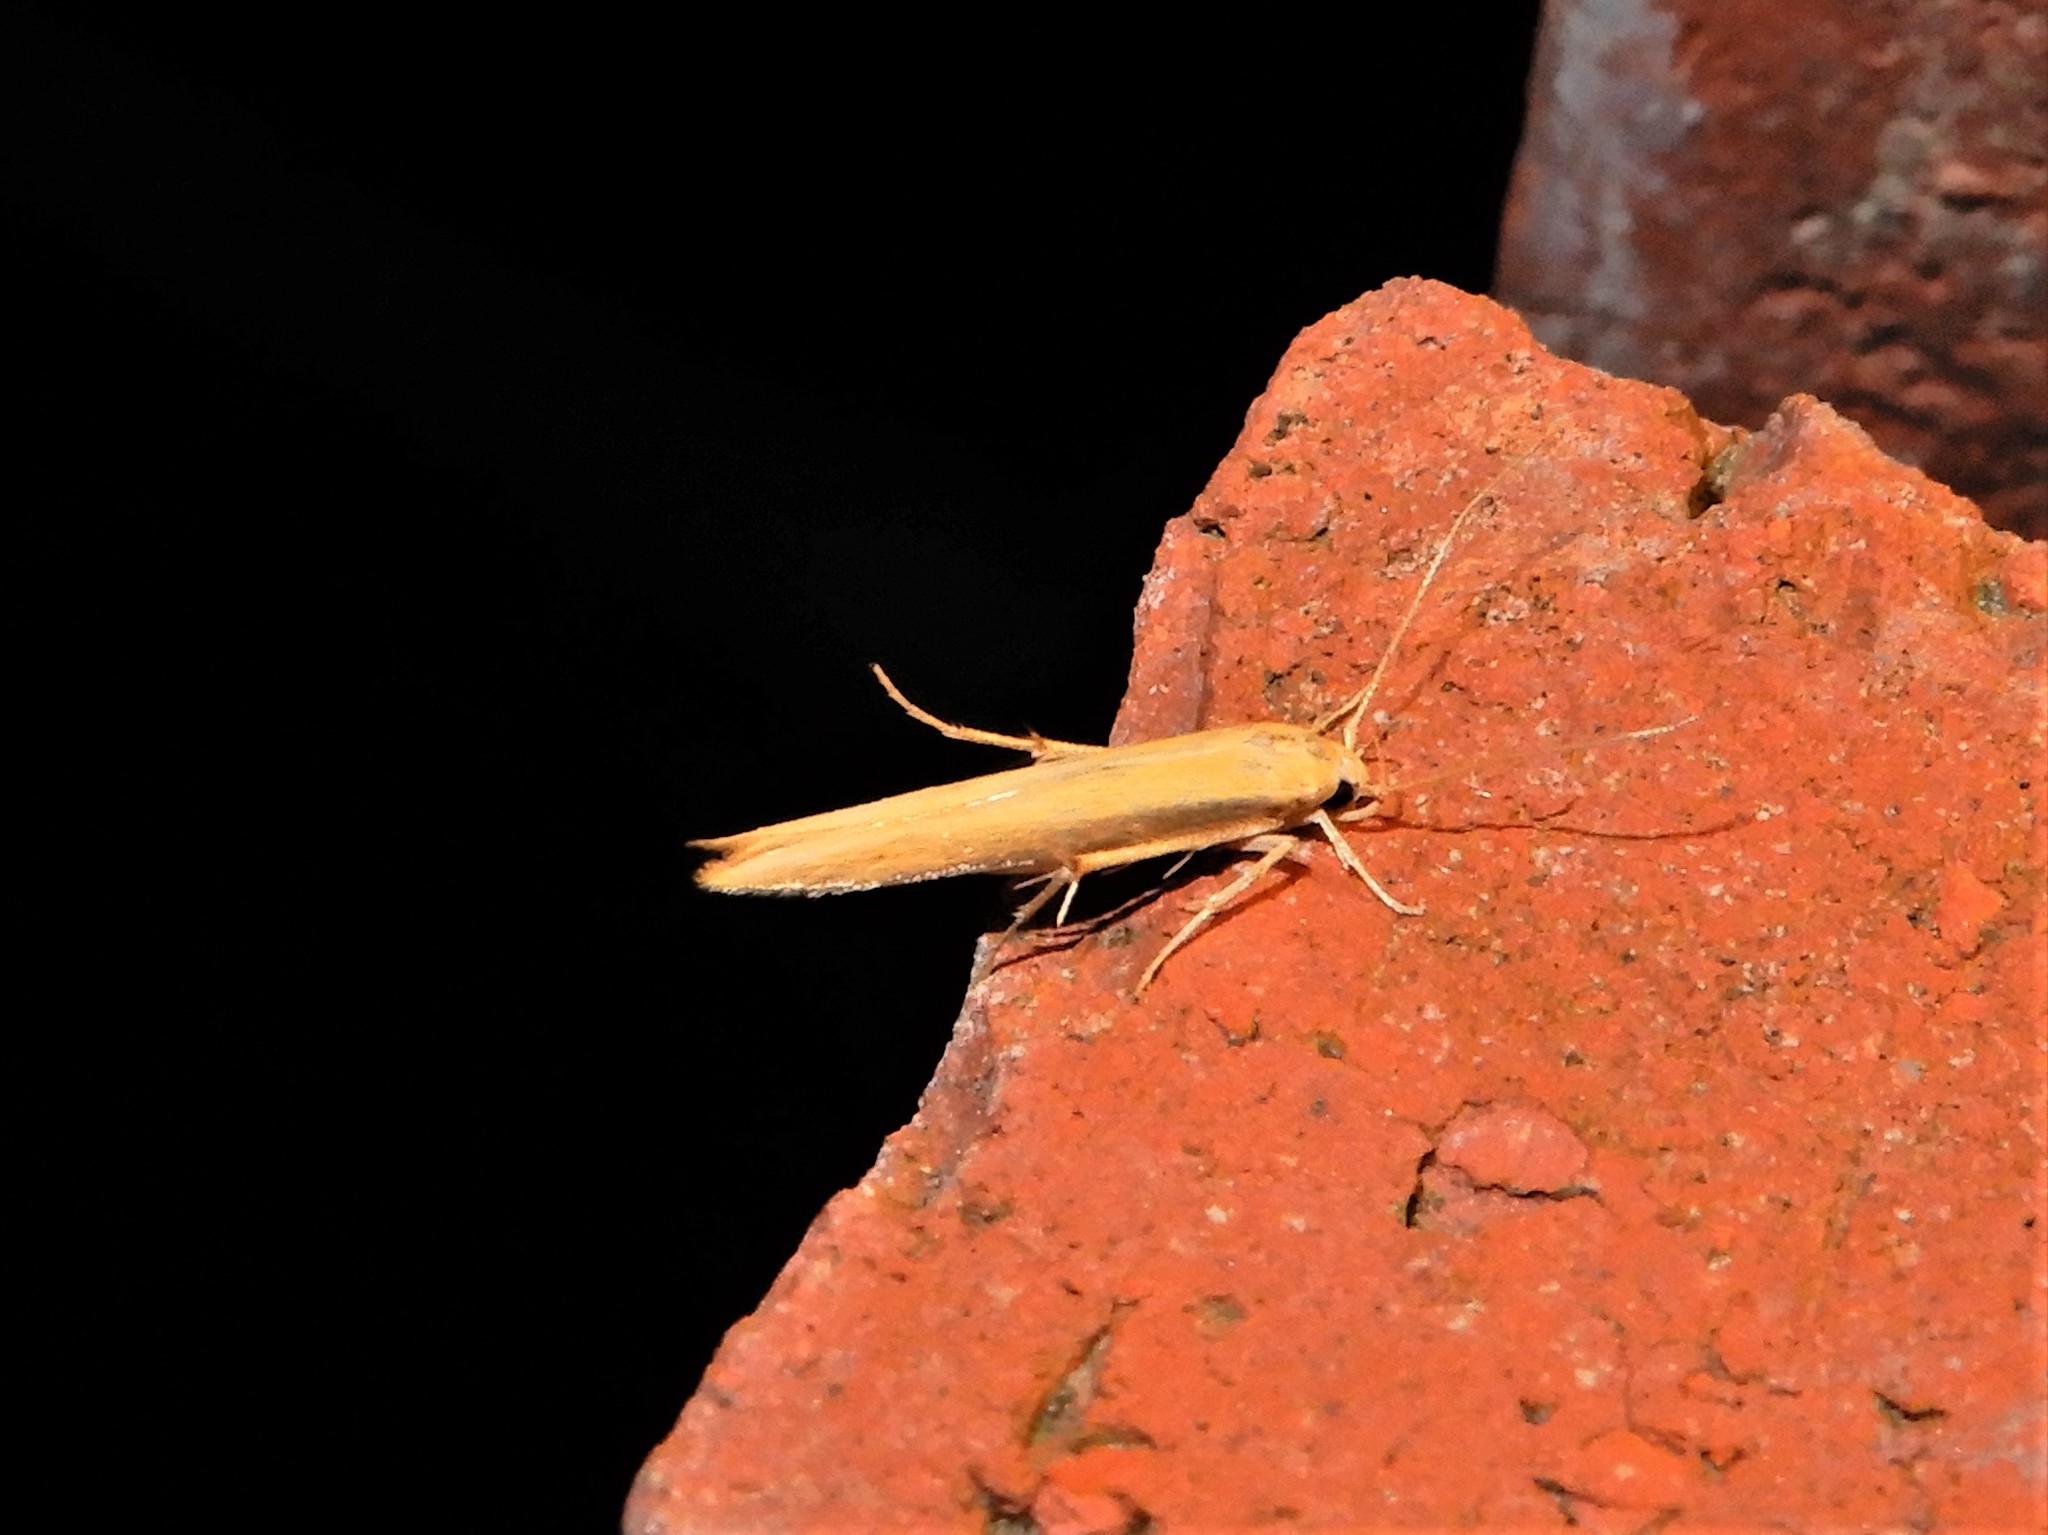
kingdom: Animalia
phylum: Arthropoda
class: Insecta
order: Lepidoptera
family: Stathmopodidae
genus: Stathmopoda
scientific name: Stathmopoda skelloni
